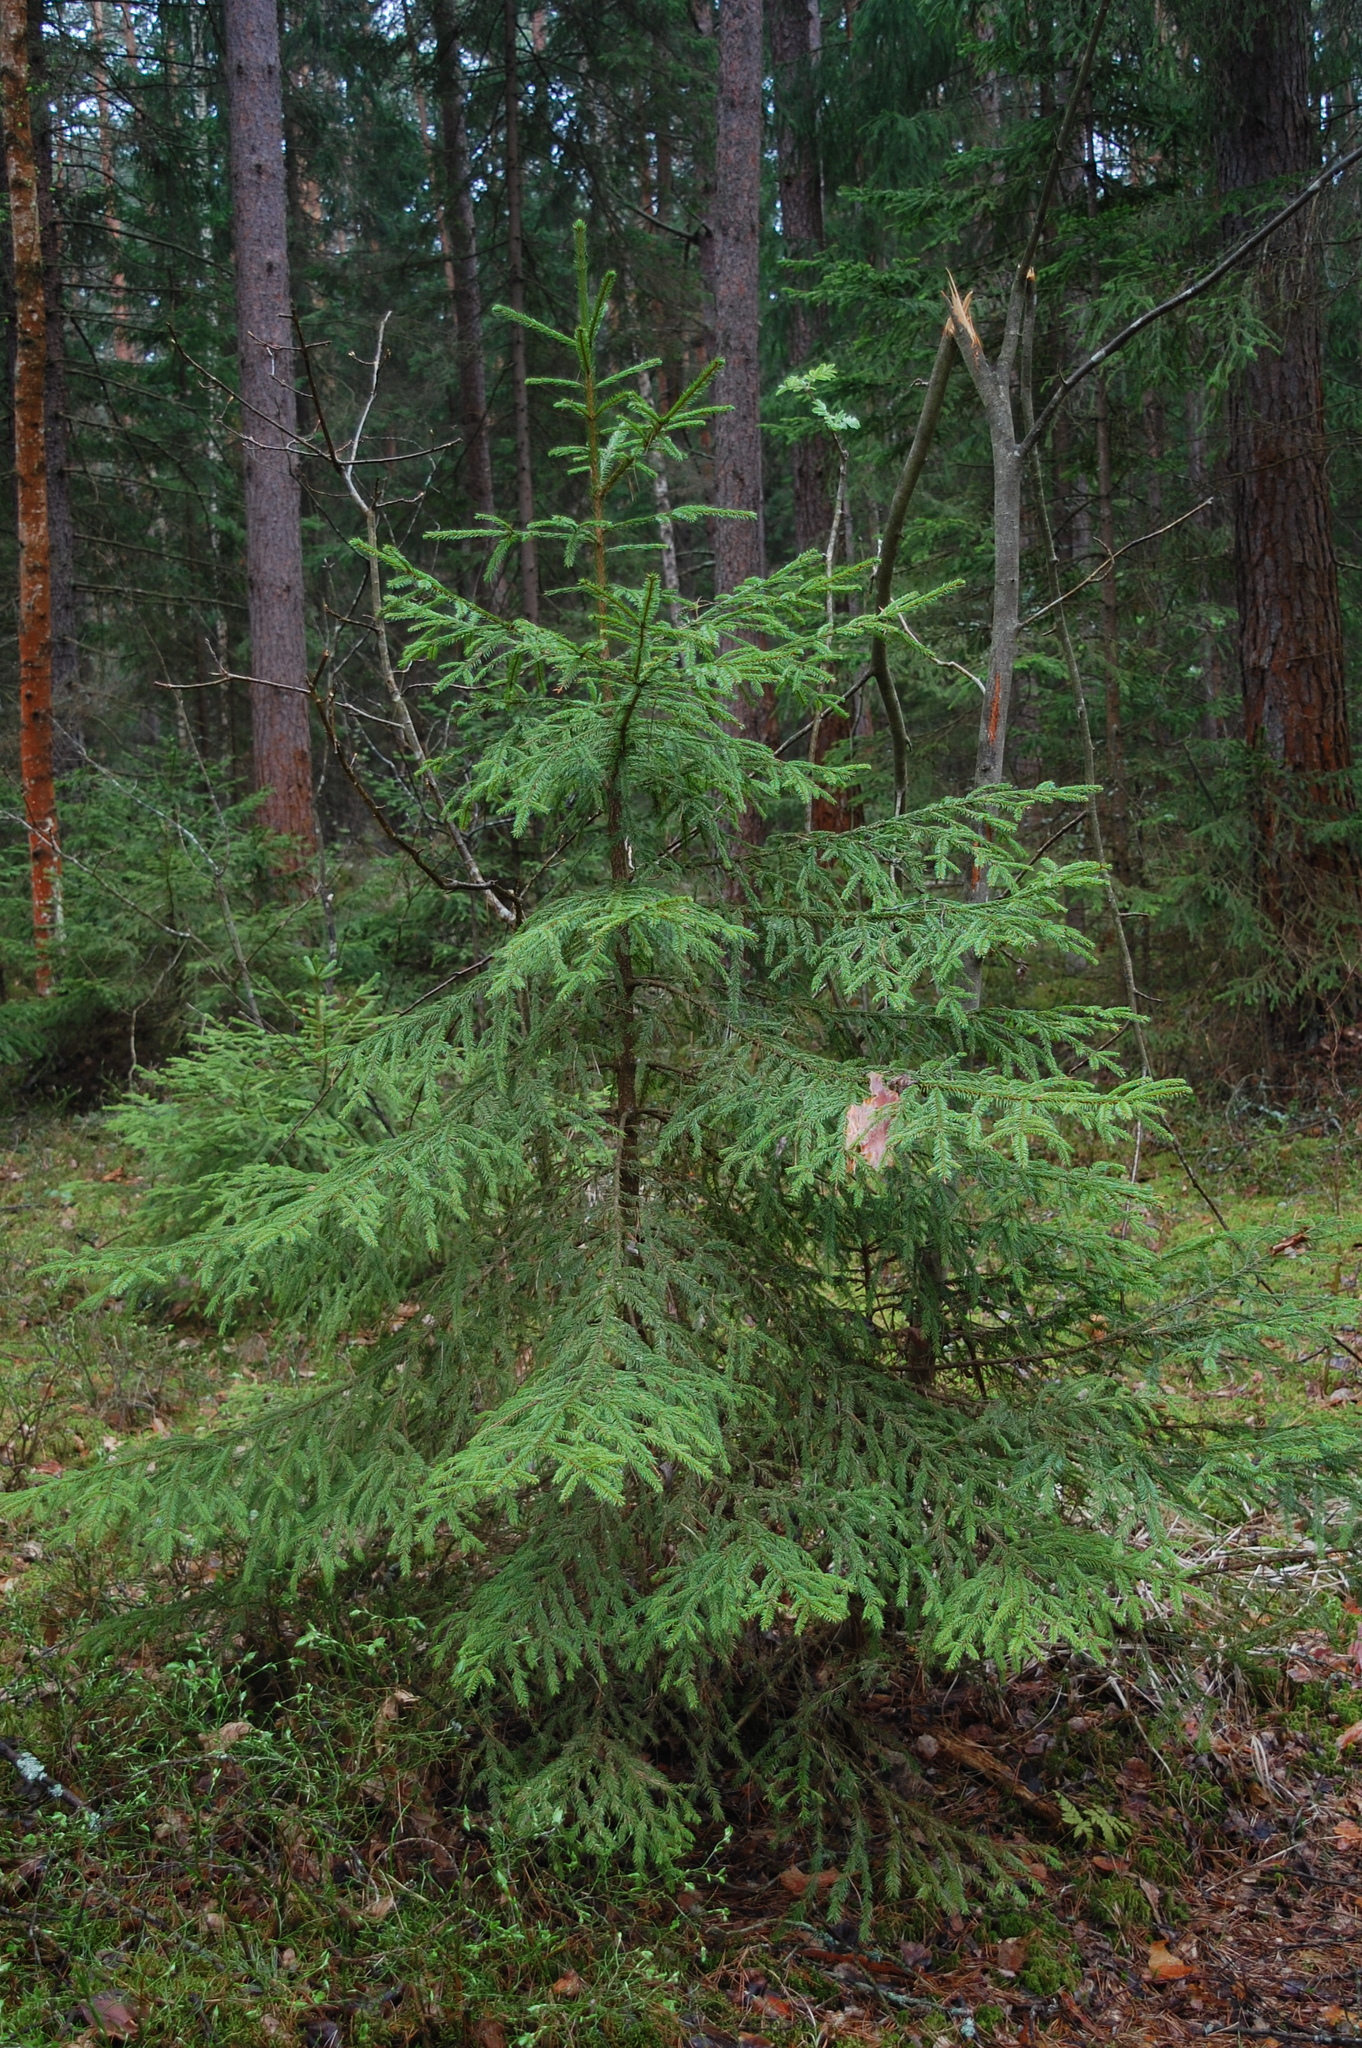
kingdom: Plantae
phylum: Tracheophyta
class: Pinopsida
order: Pinales
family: Pinaceae
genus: Picea
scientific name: Picea abies
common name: Norway spruce
